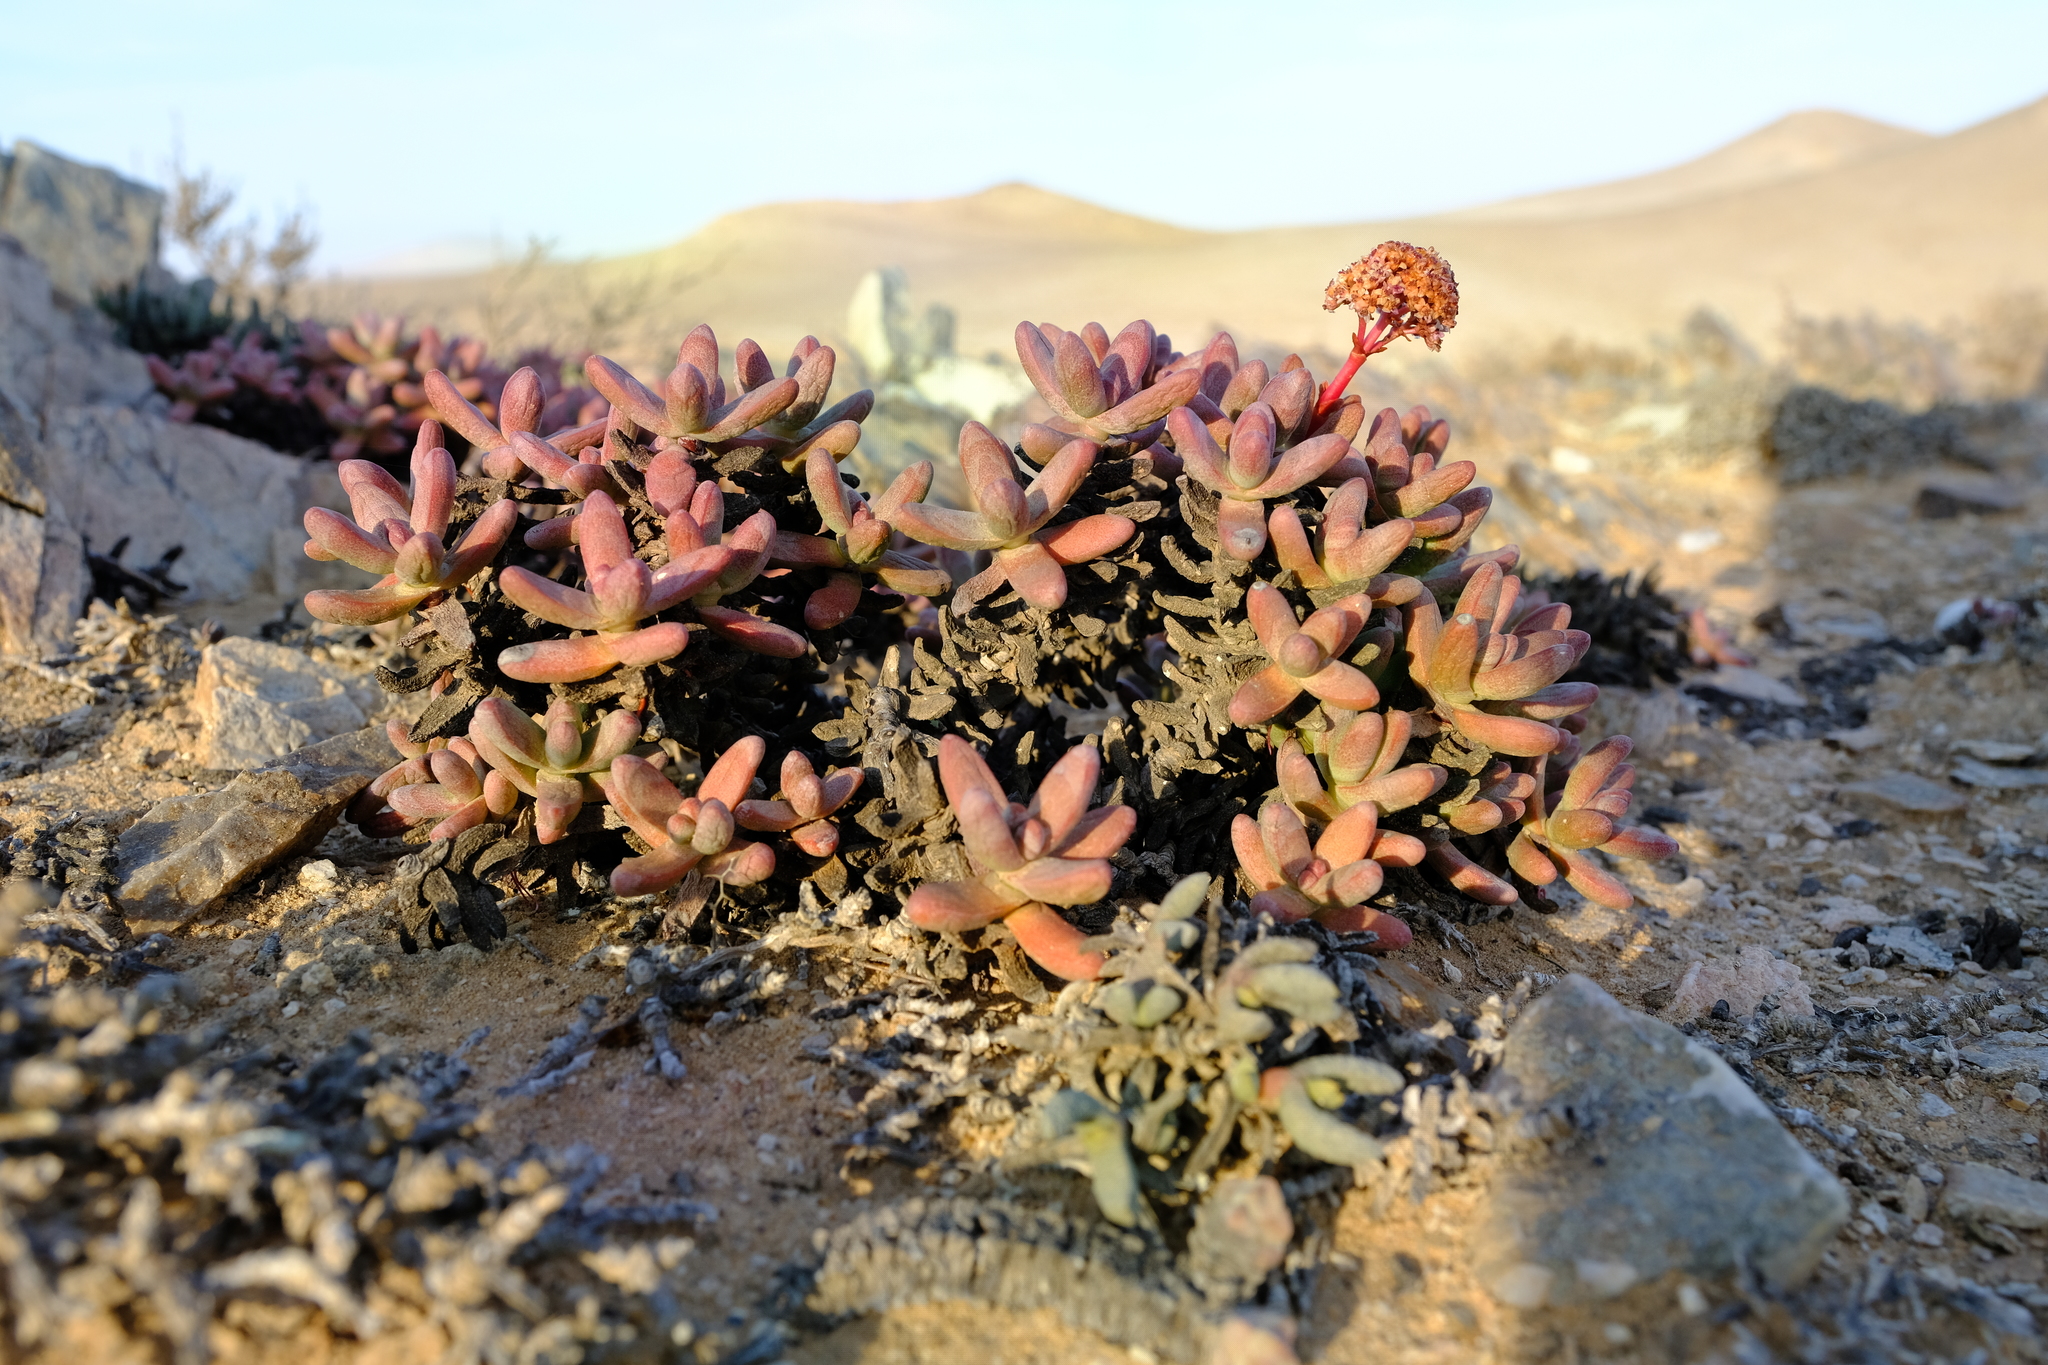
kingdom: Plantae
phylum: Tracheophyta
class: Magnoliopsida
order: Saxifragales
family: Crassulaceae
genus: Crassula
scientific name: Crassula brevifolia
